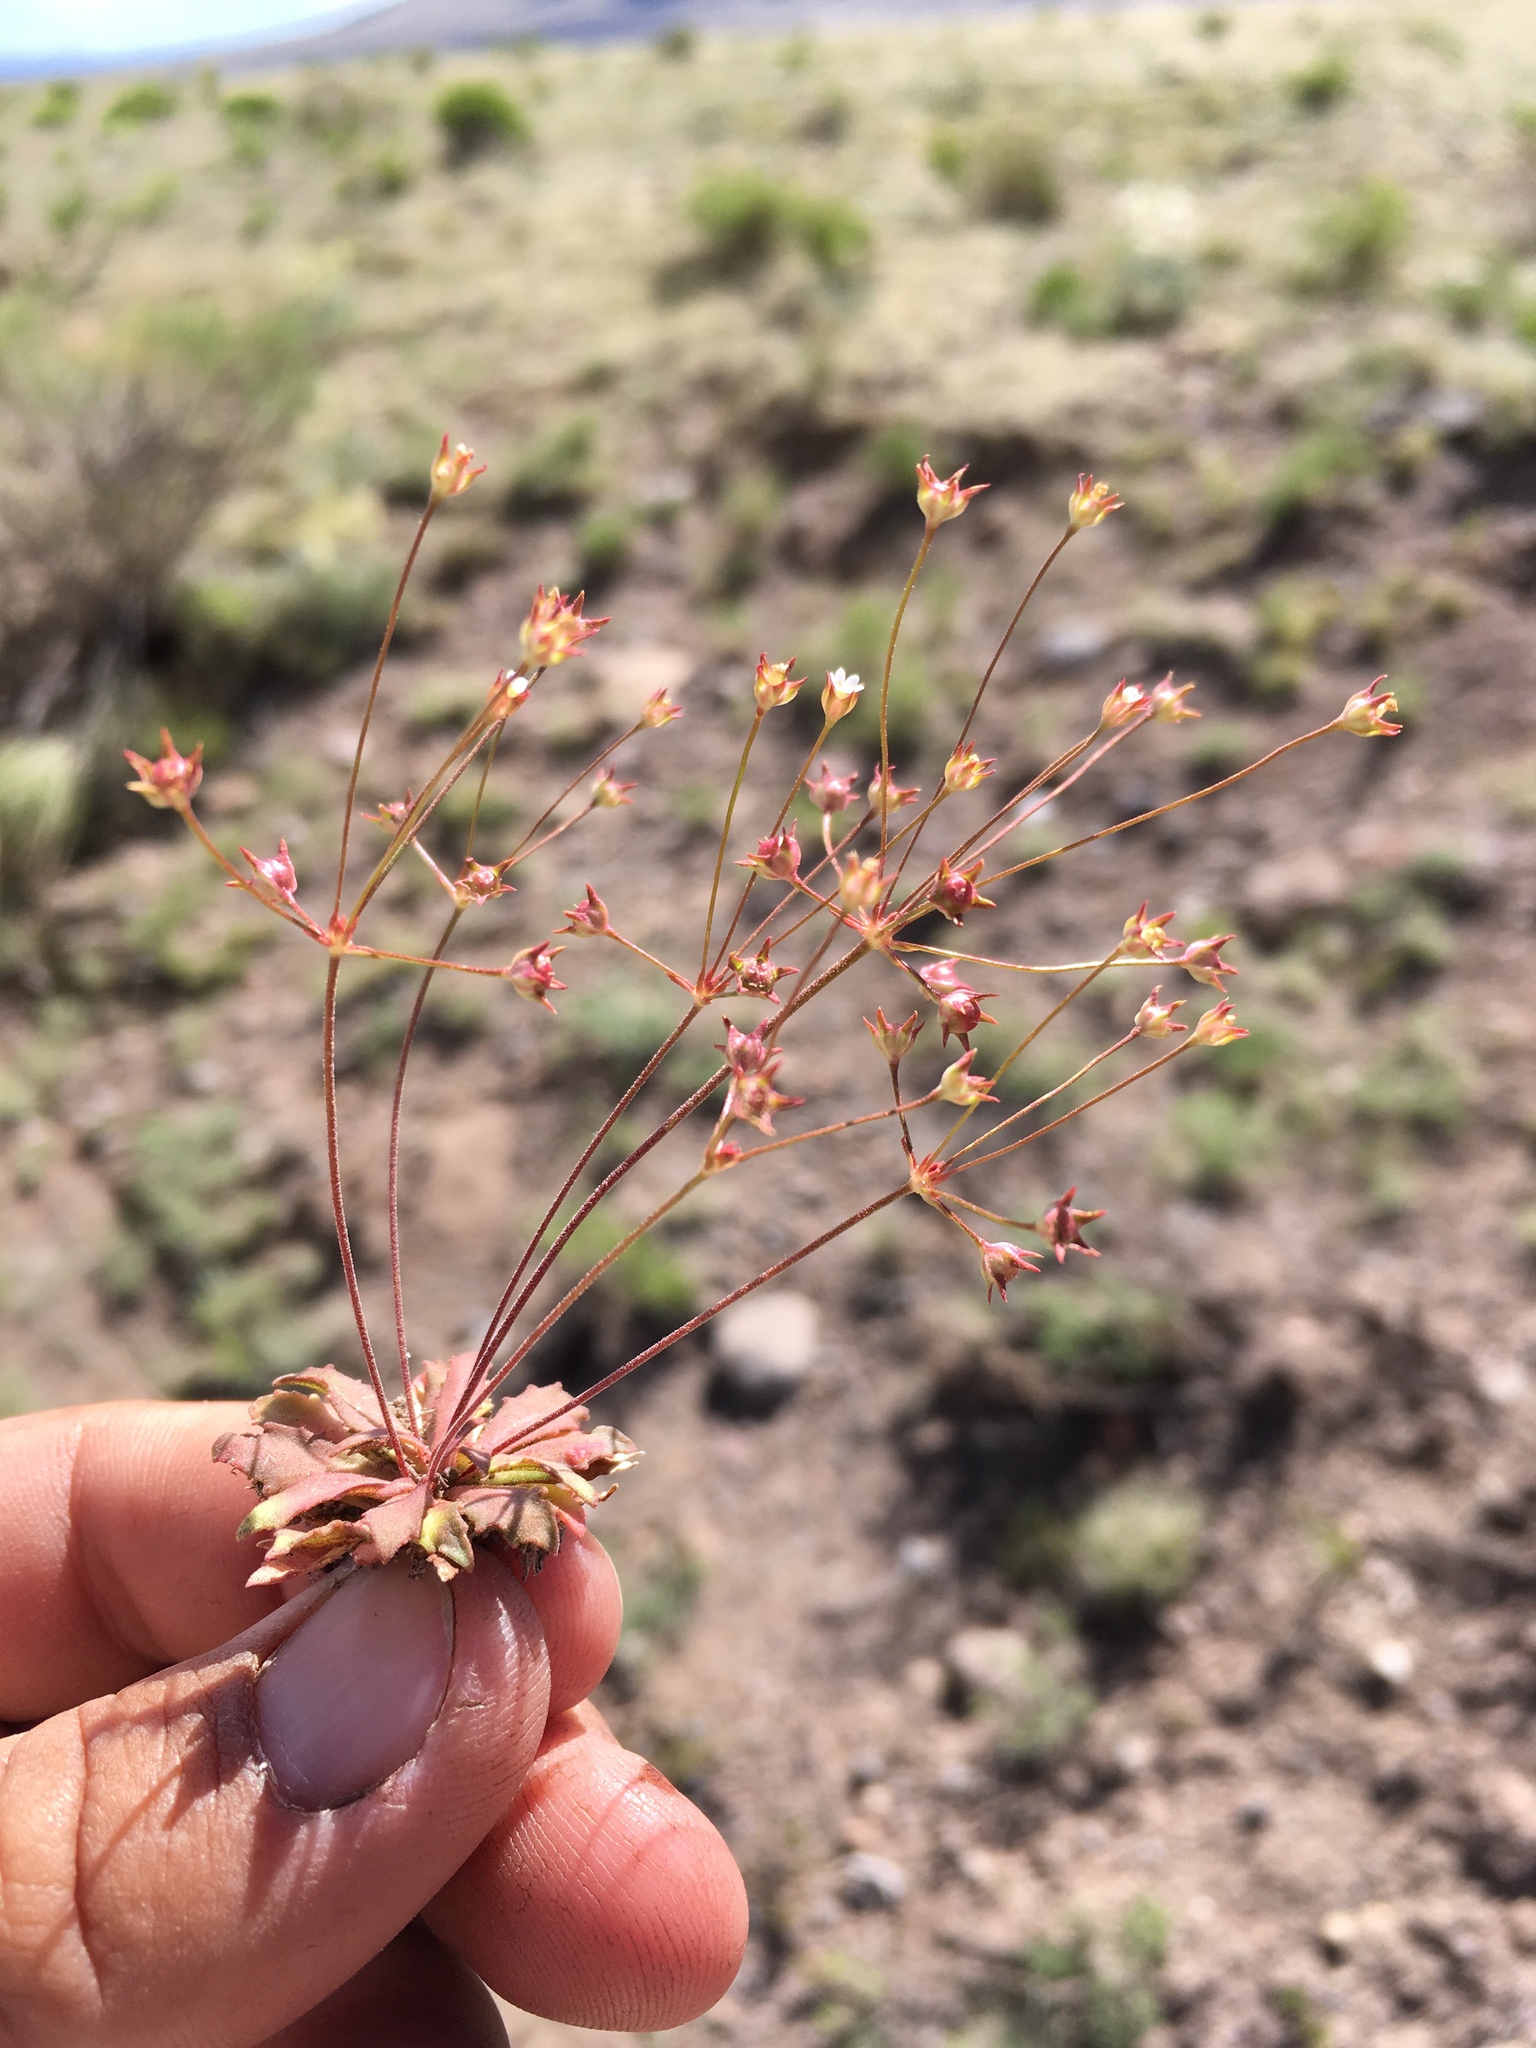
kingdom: Plantae
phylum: Tracheophyta
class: Magnoliopsida
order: Ericales
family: Primulaceae
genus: Androsace
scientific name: Androsace septentrionalis
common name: Hairy northern fairy-candelabra
